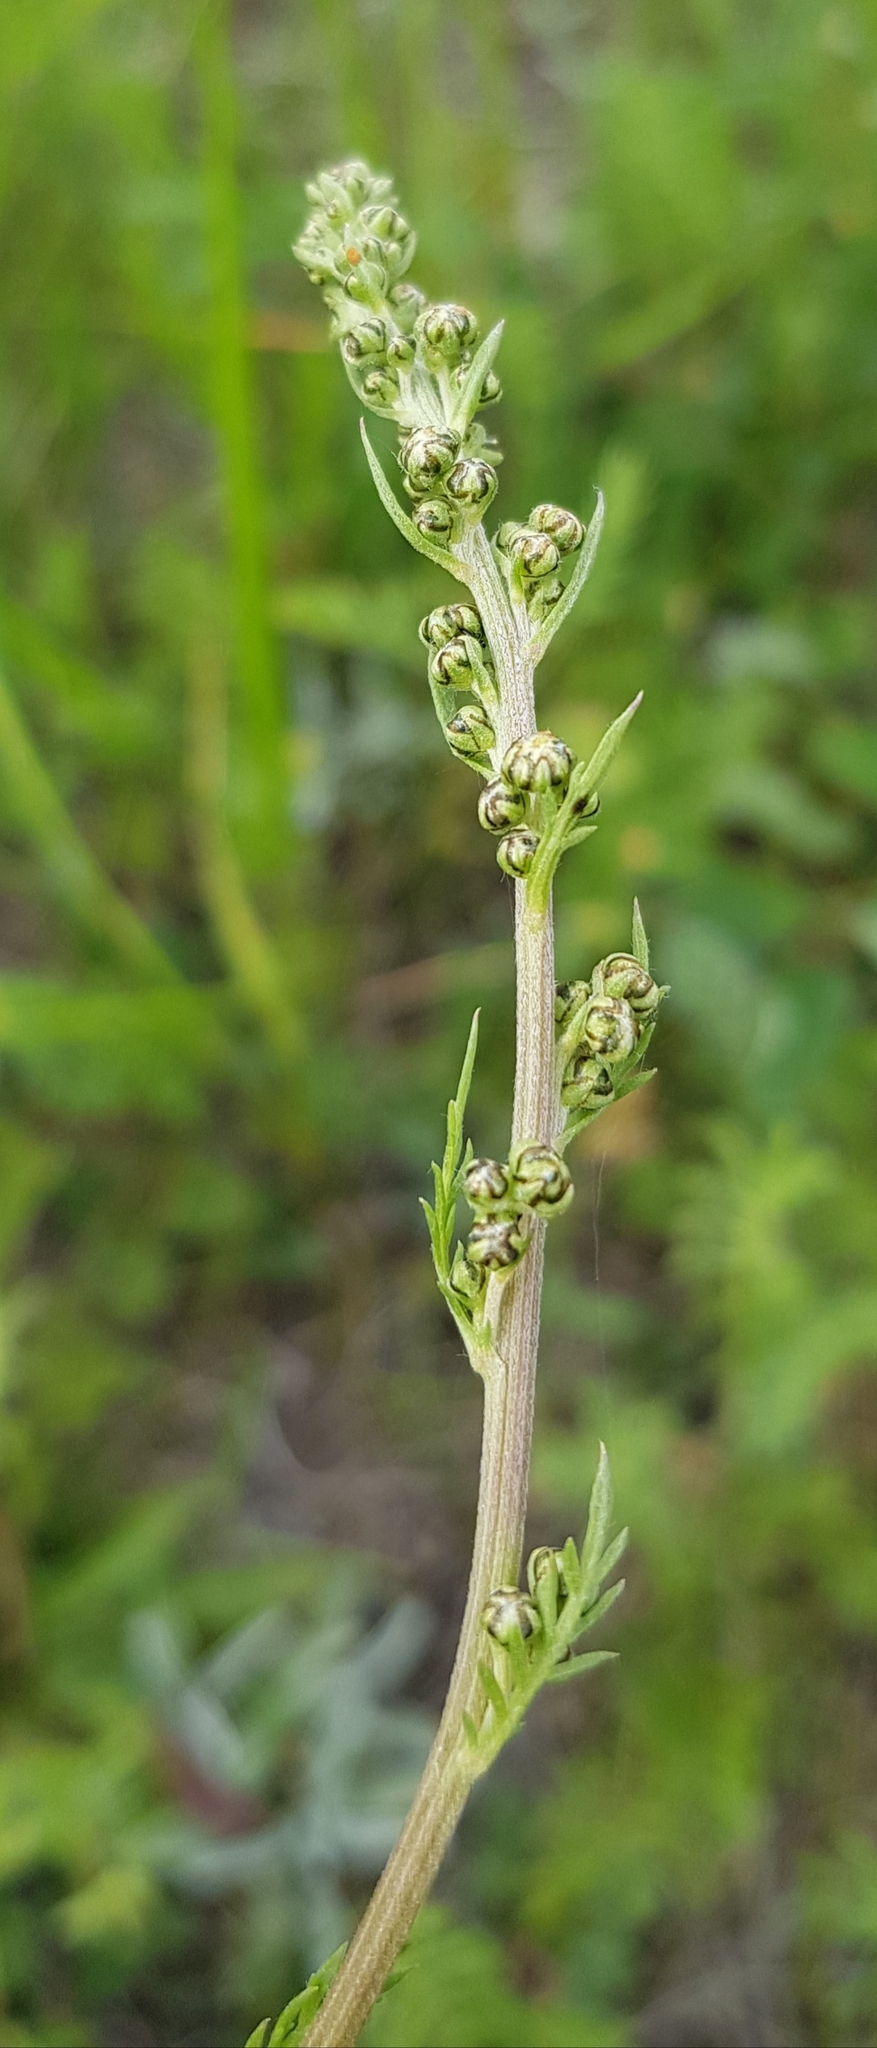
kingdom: Plantae
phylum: Tracheophyta
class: Magnoliopsida
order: Asterales
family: Asteraceae
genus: Artemisia
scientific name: Artemisia tanacetifolia
